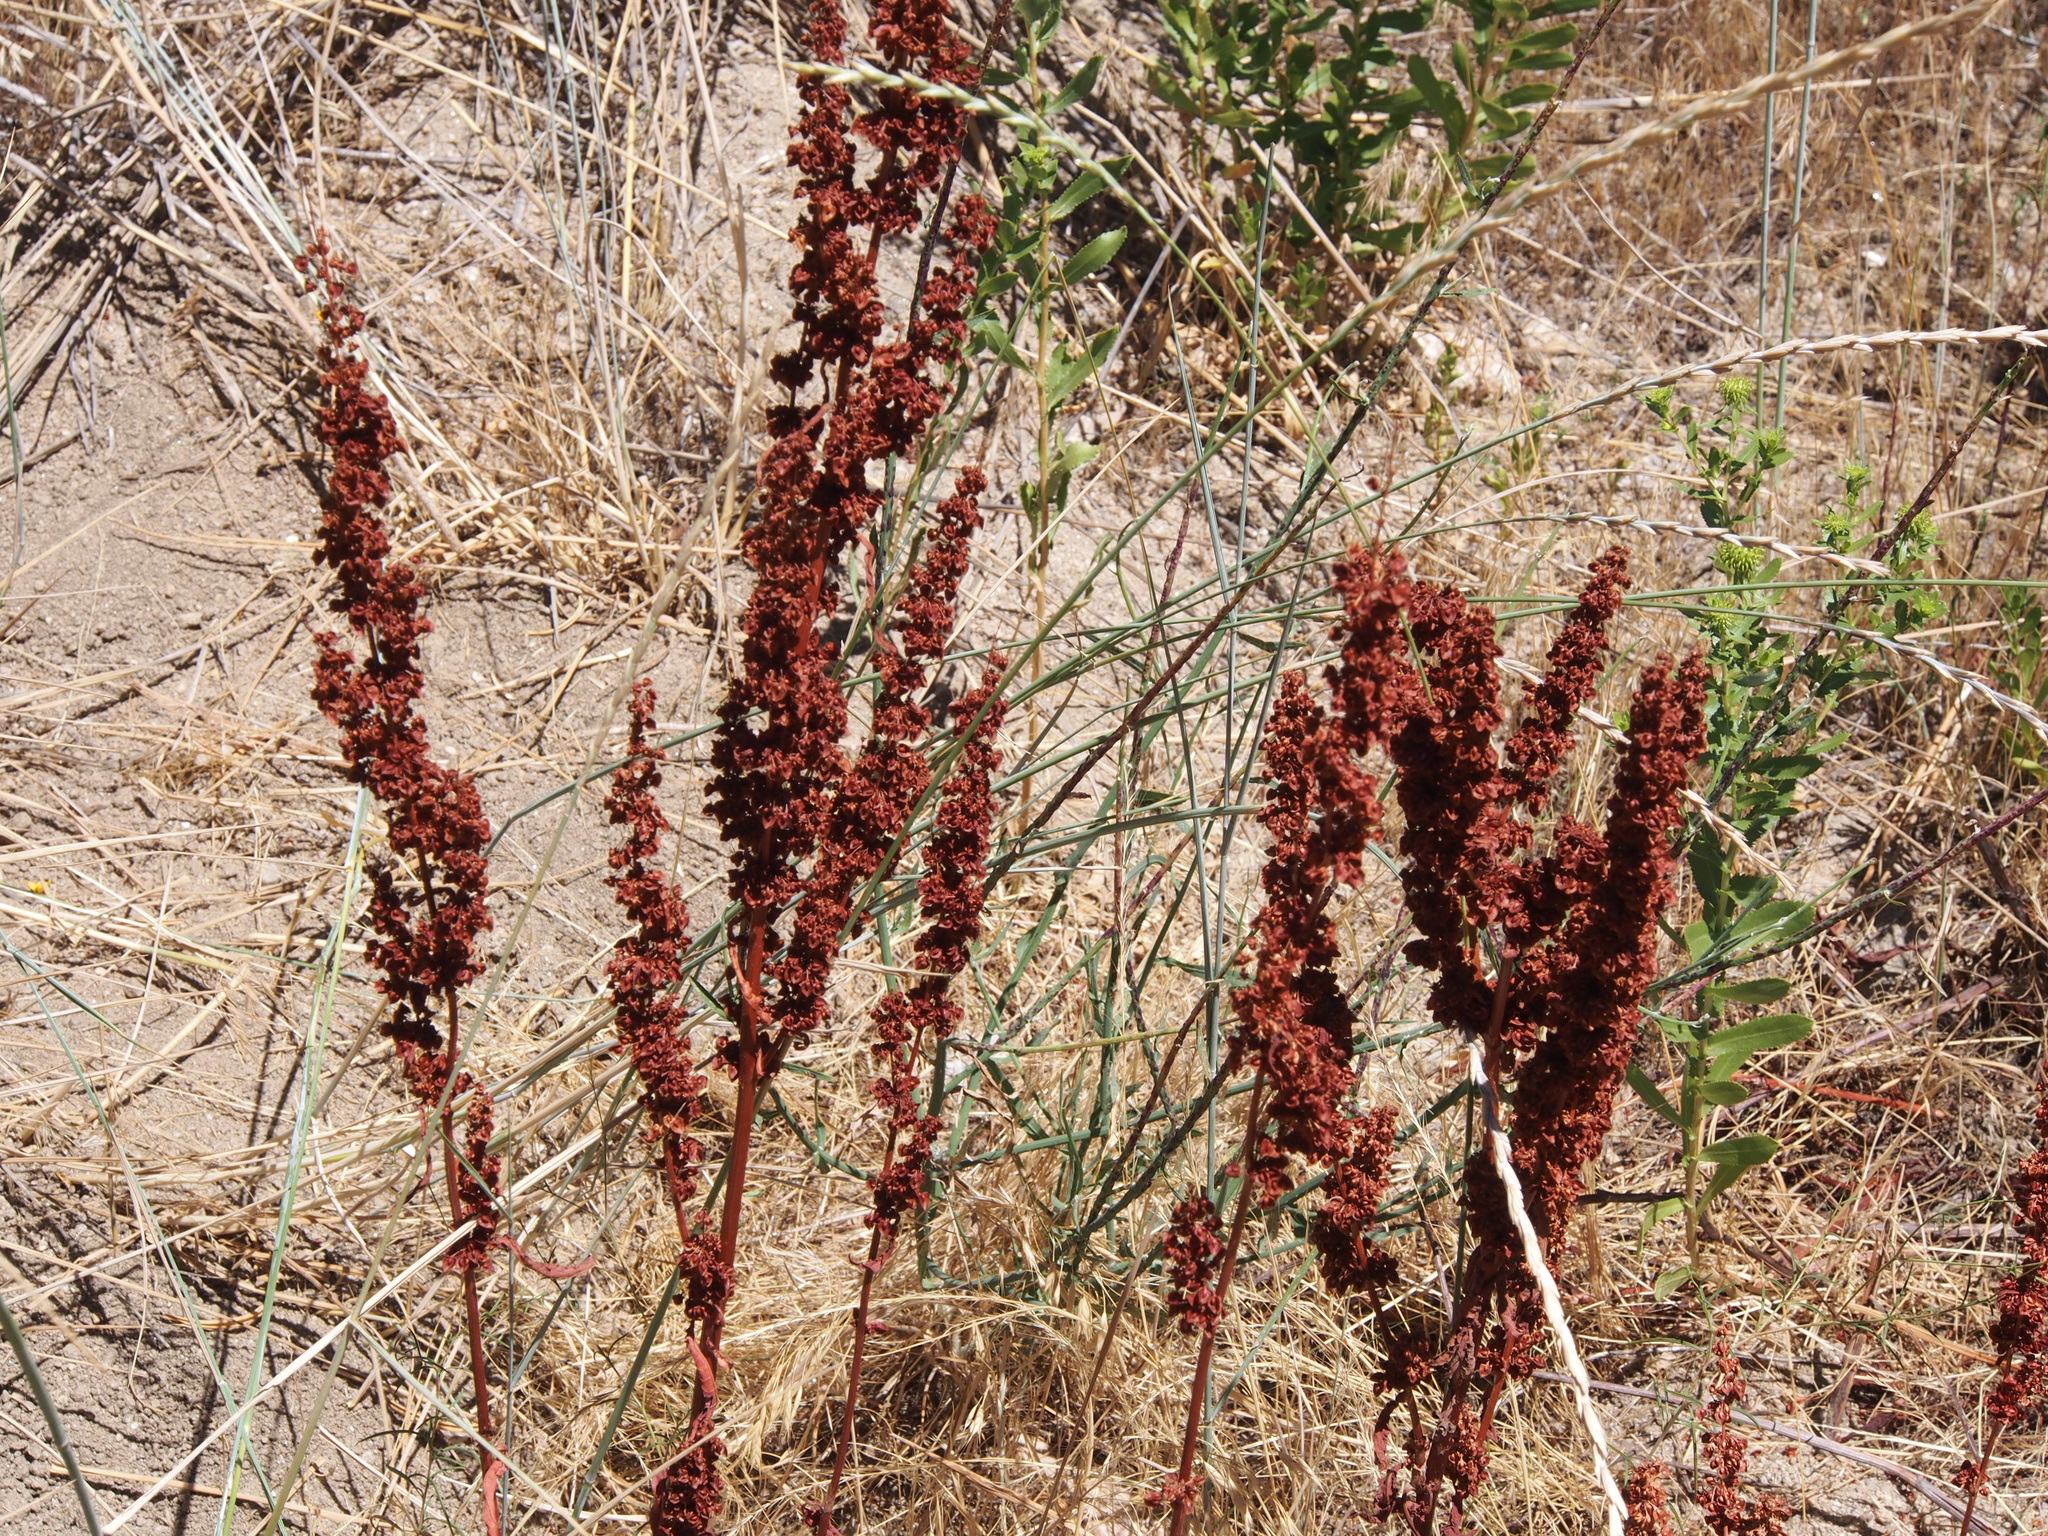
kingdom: Plantae
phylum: Tracheophyta
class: Magnoliopsida
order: Caryophyllales
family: Polygonaceae
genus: Rumex
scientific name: Rumex crispus
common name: Curled dock
